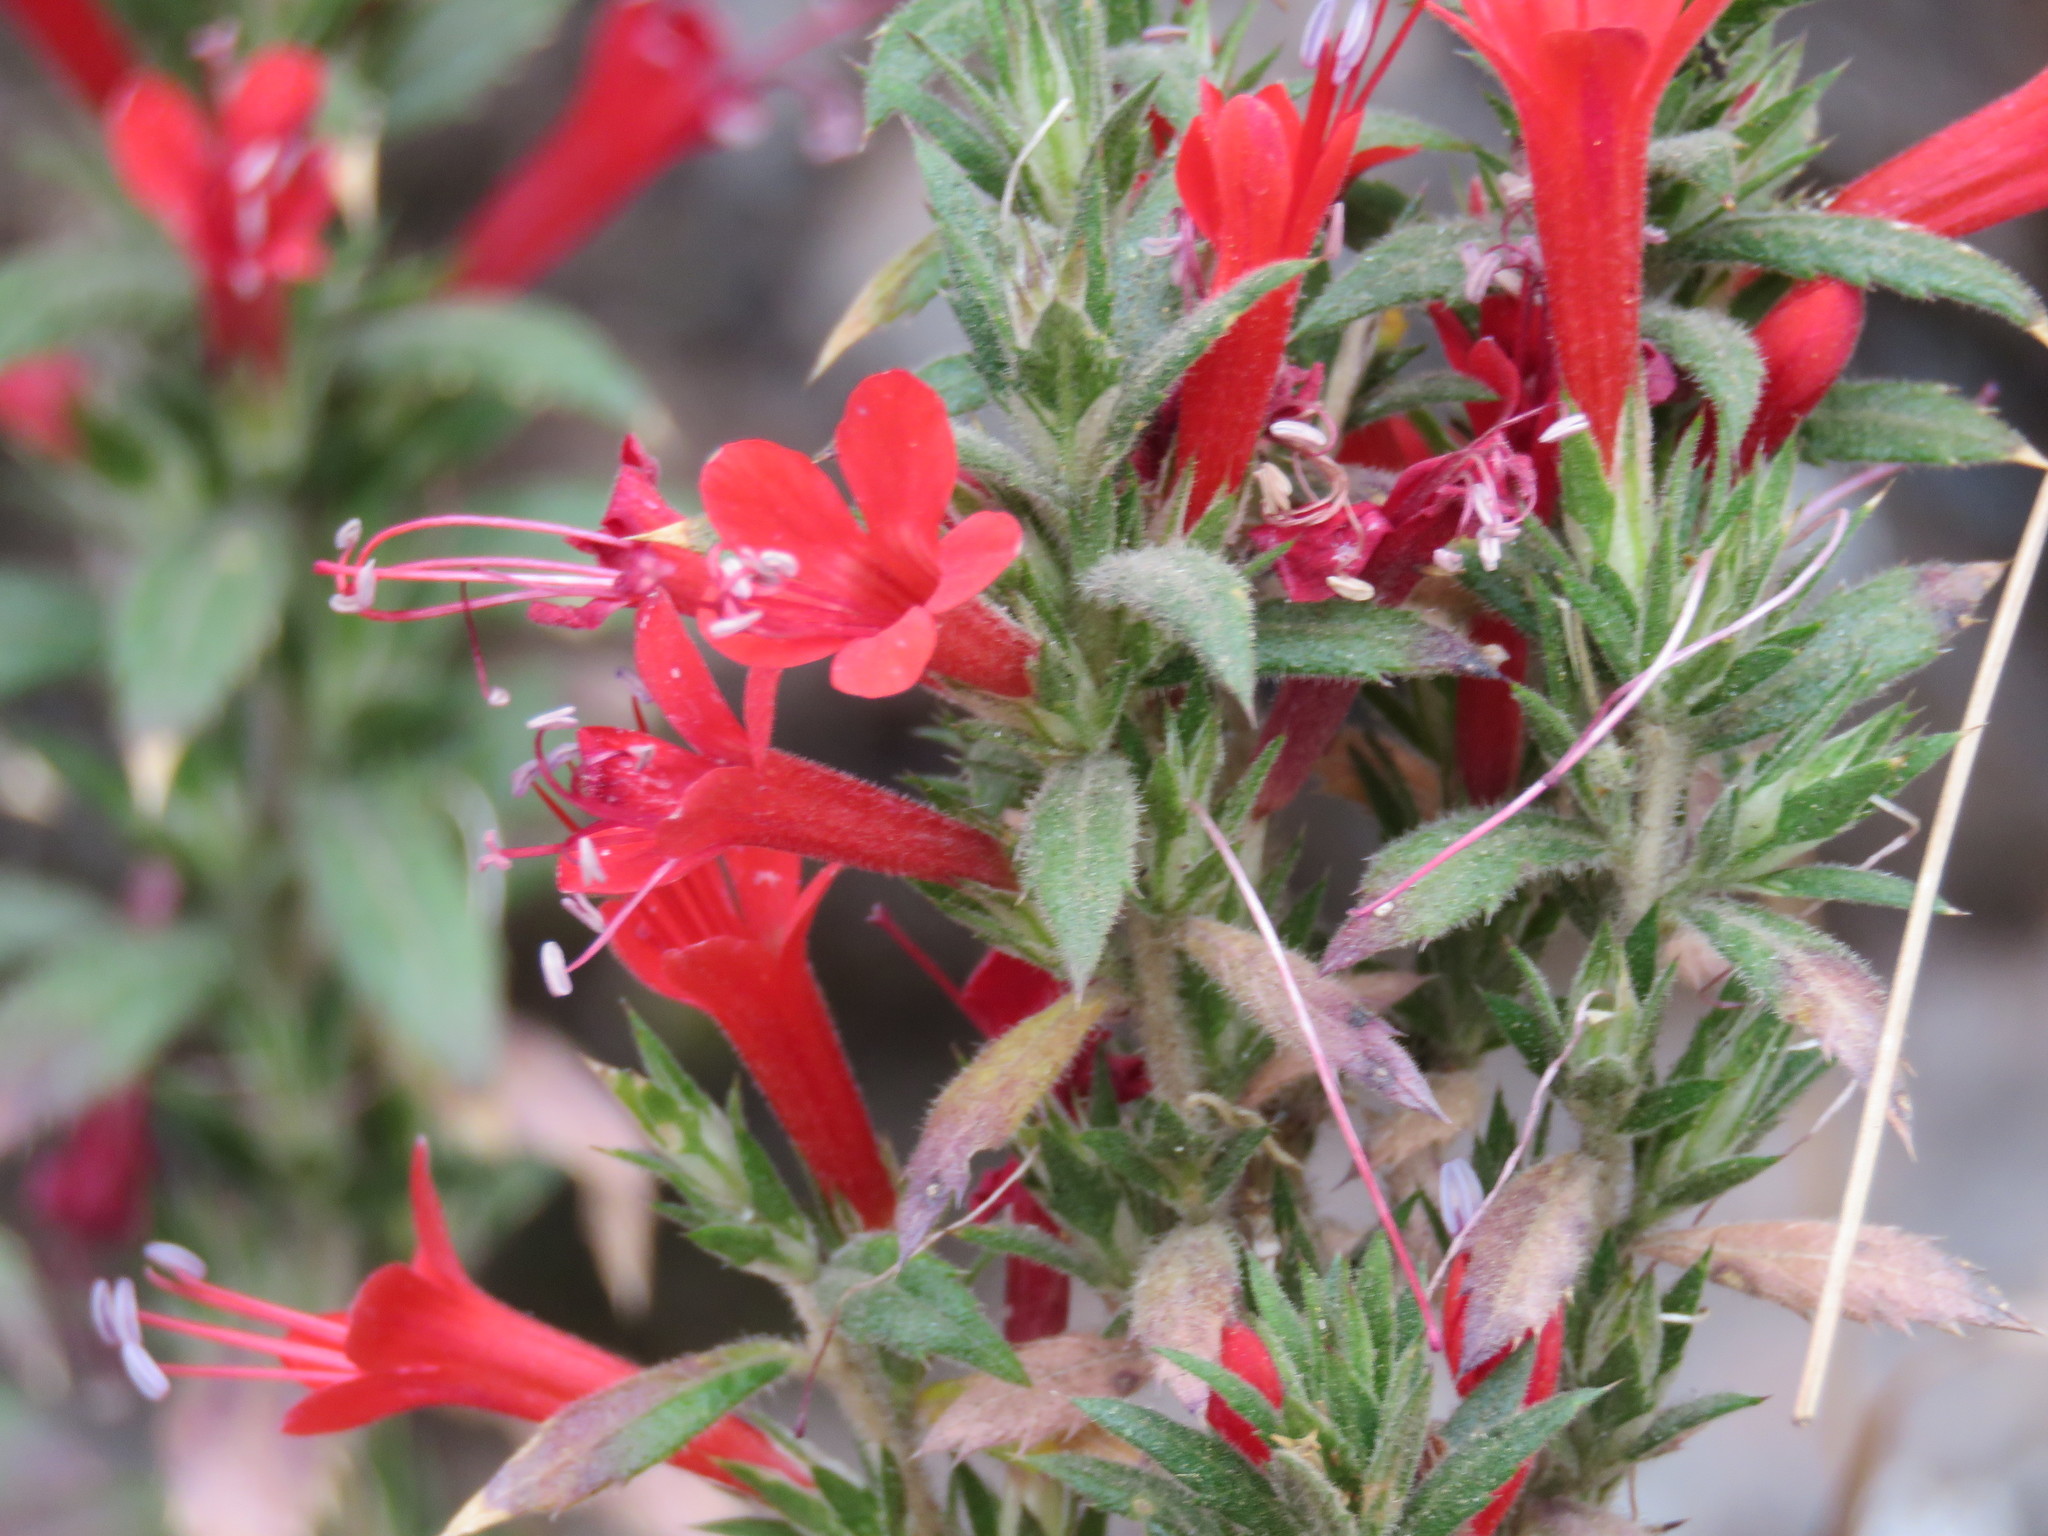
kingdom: Plantae
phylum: Tracheophyta
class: Magnoliopsida
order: Ericales
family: Polemoniaceae
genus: Loeselia
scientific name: Loeselia mexicana
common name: Mexican false calico
